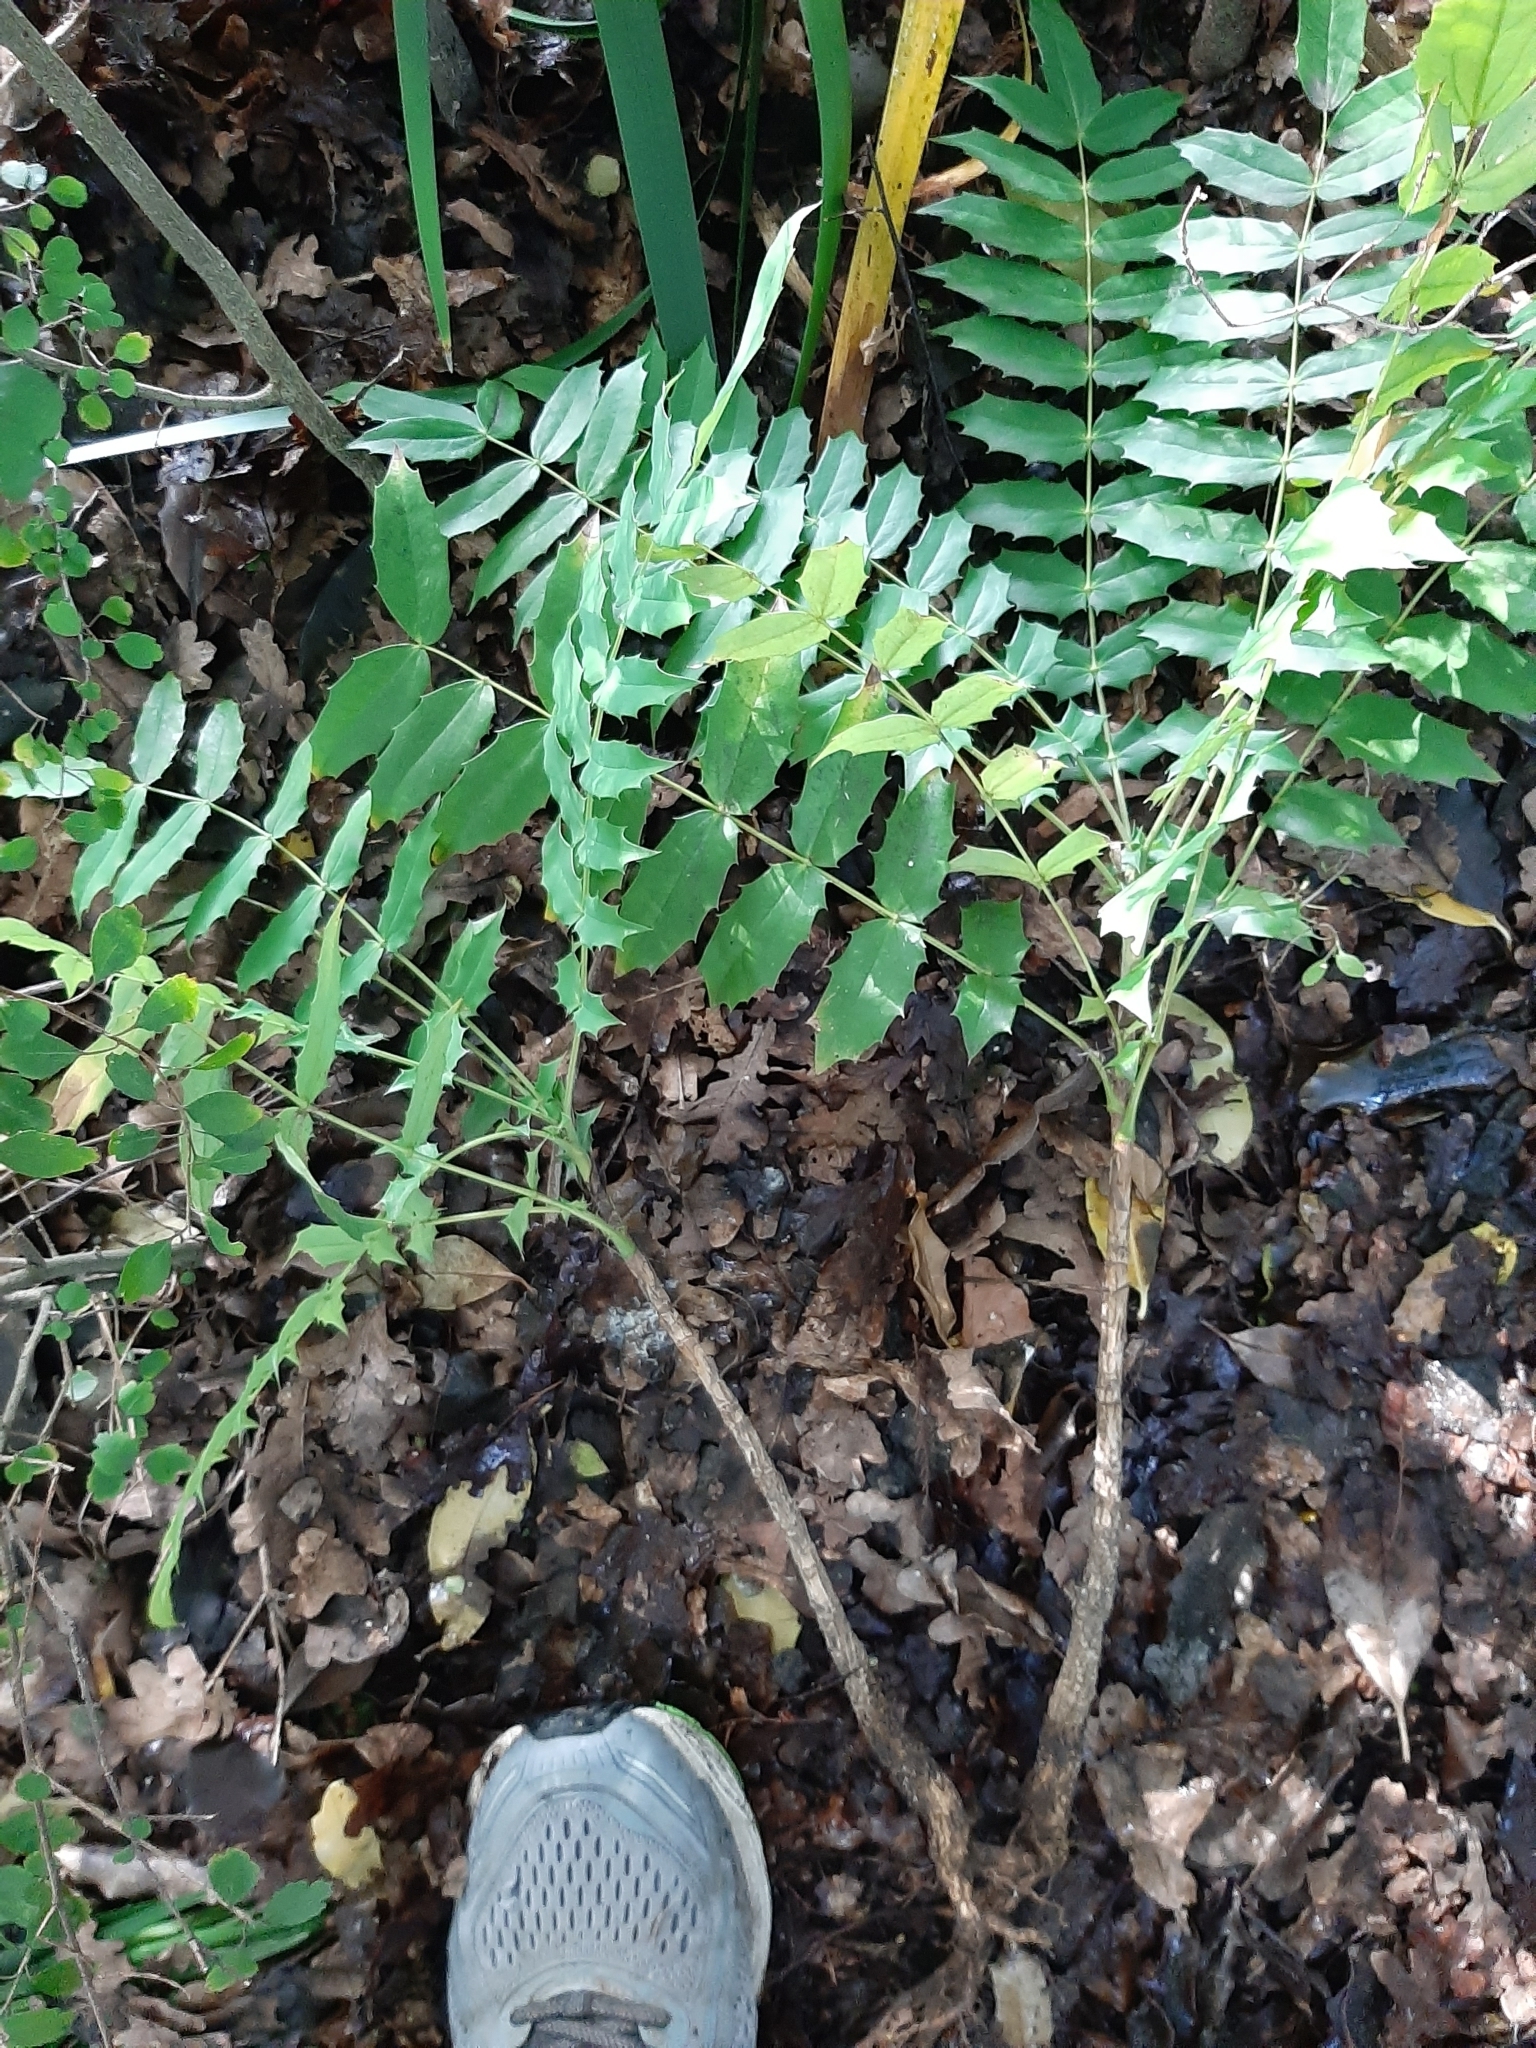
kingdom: Plantae
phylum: Tracheophyta
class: Magnoliopsida
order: Ranunculales
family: Berberidaceae
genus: Mahonia
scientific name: Mahonia oiwakensis
